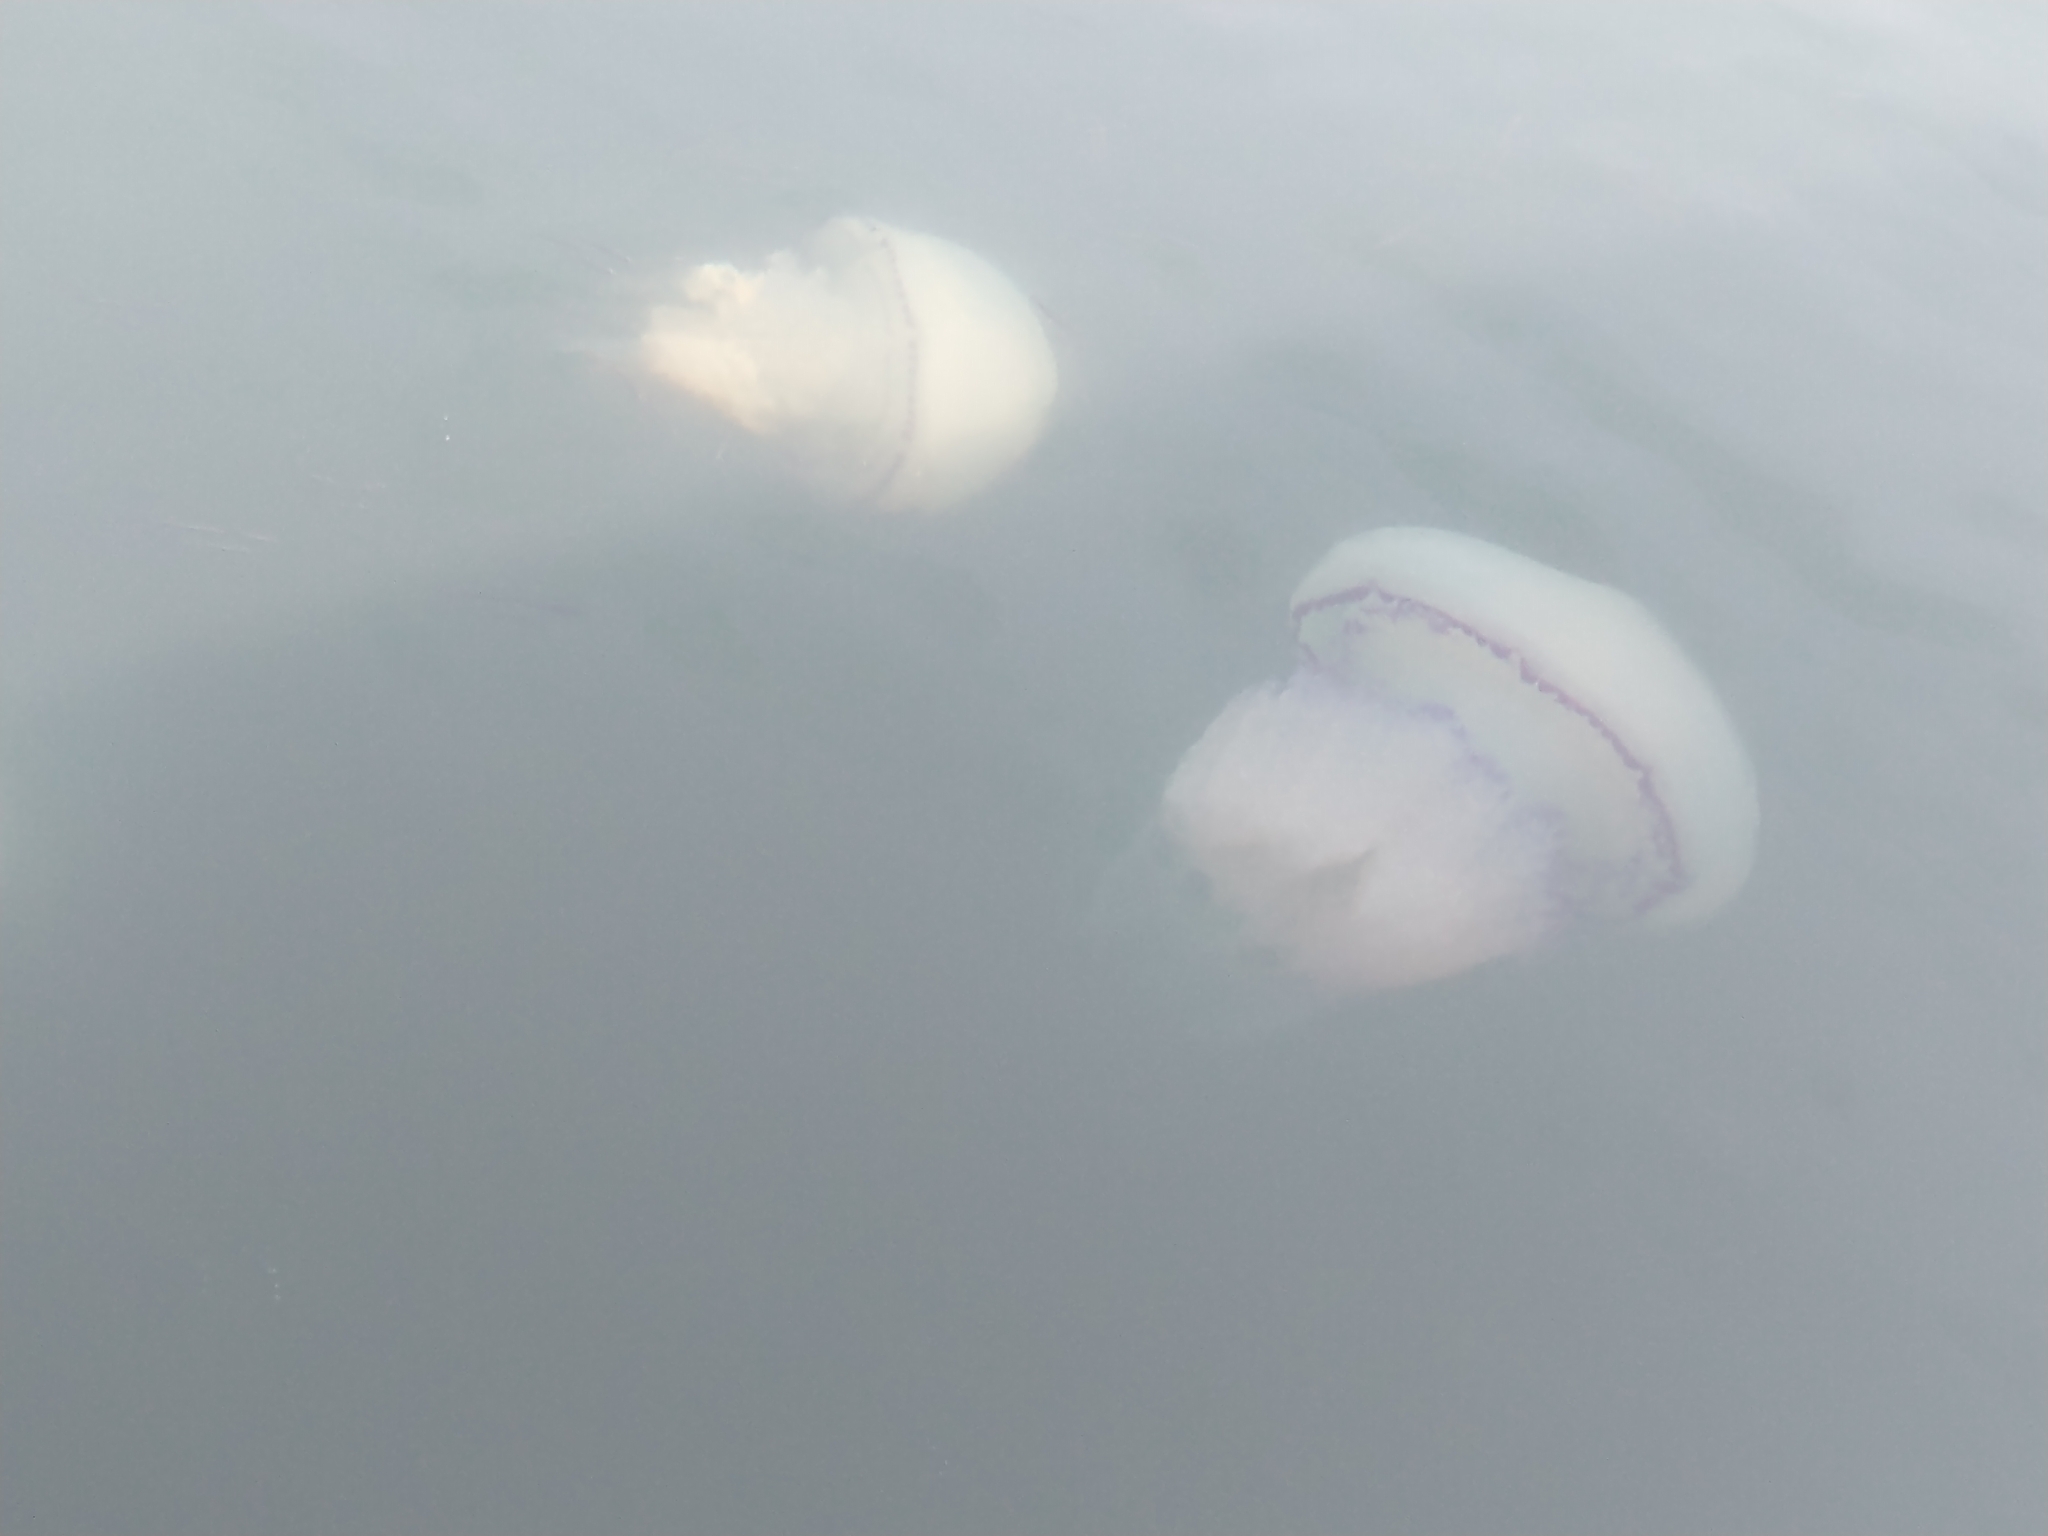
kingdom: Animalia
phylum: Cnidaria
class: Scyphozoa
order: Rhizostomeae
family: Rhizostomatidae
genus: Rhizostoma
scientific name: Rhizostoma pulmo
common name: Barrel jellyfish
